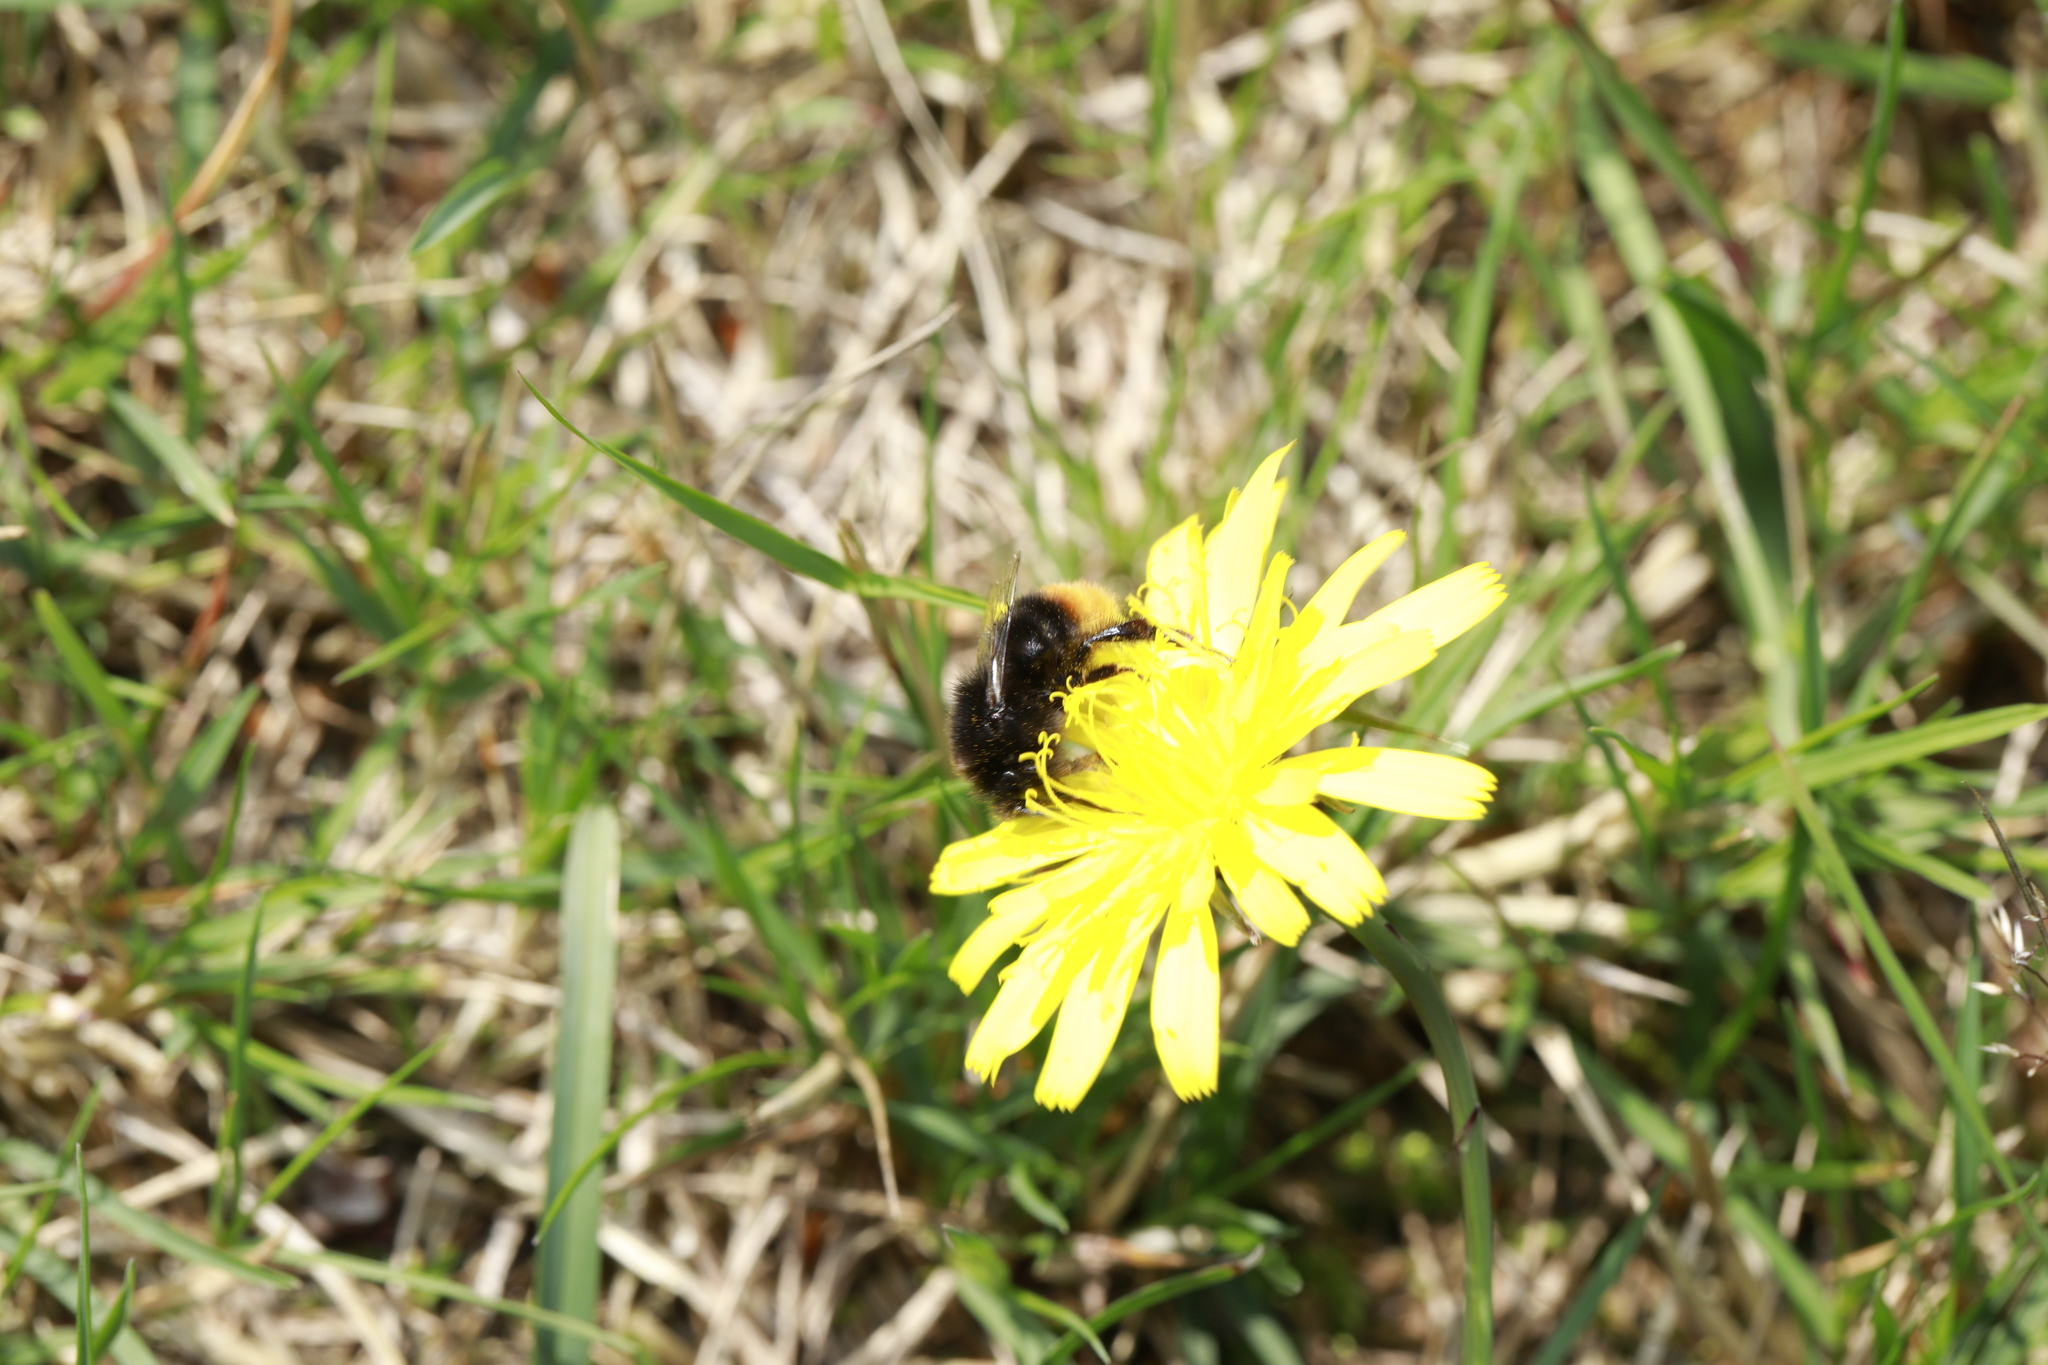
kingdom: Animalia
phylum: Arthropoda
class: Insecta
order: Hymenoptera
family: Apidae
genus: Bombus
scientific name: Bombus lapidarius
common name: Large red-tailed humble-bee
